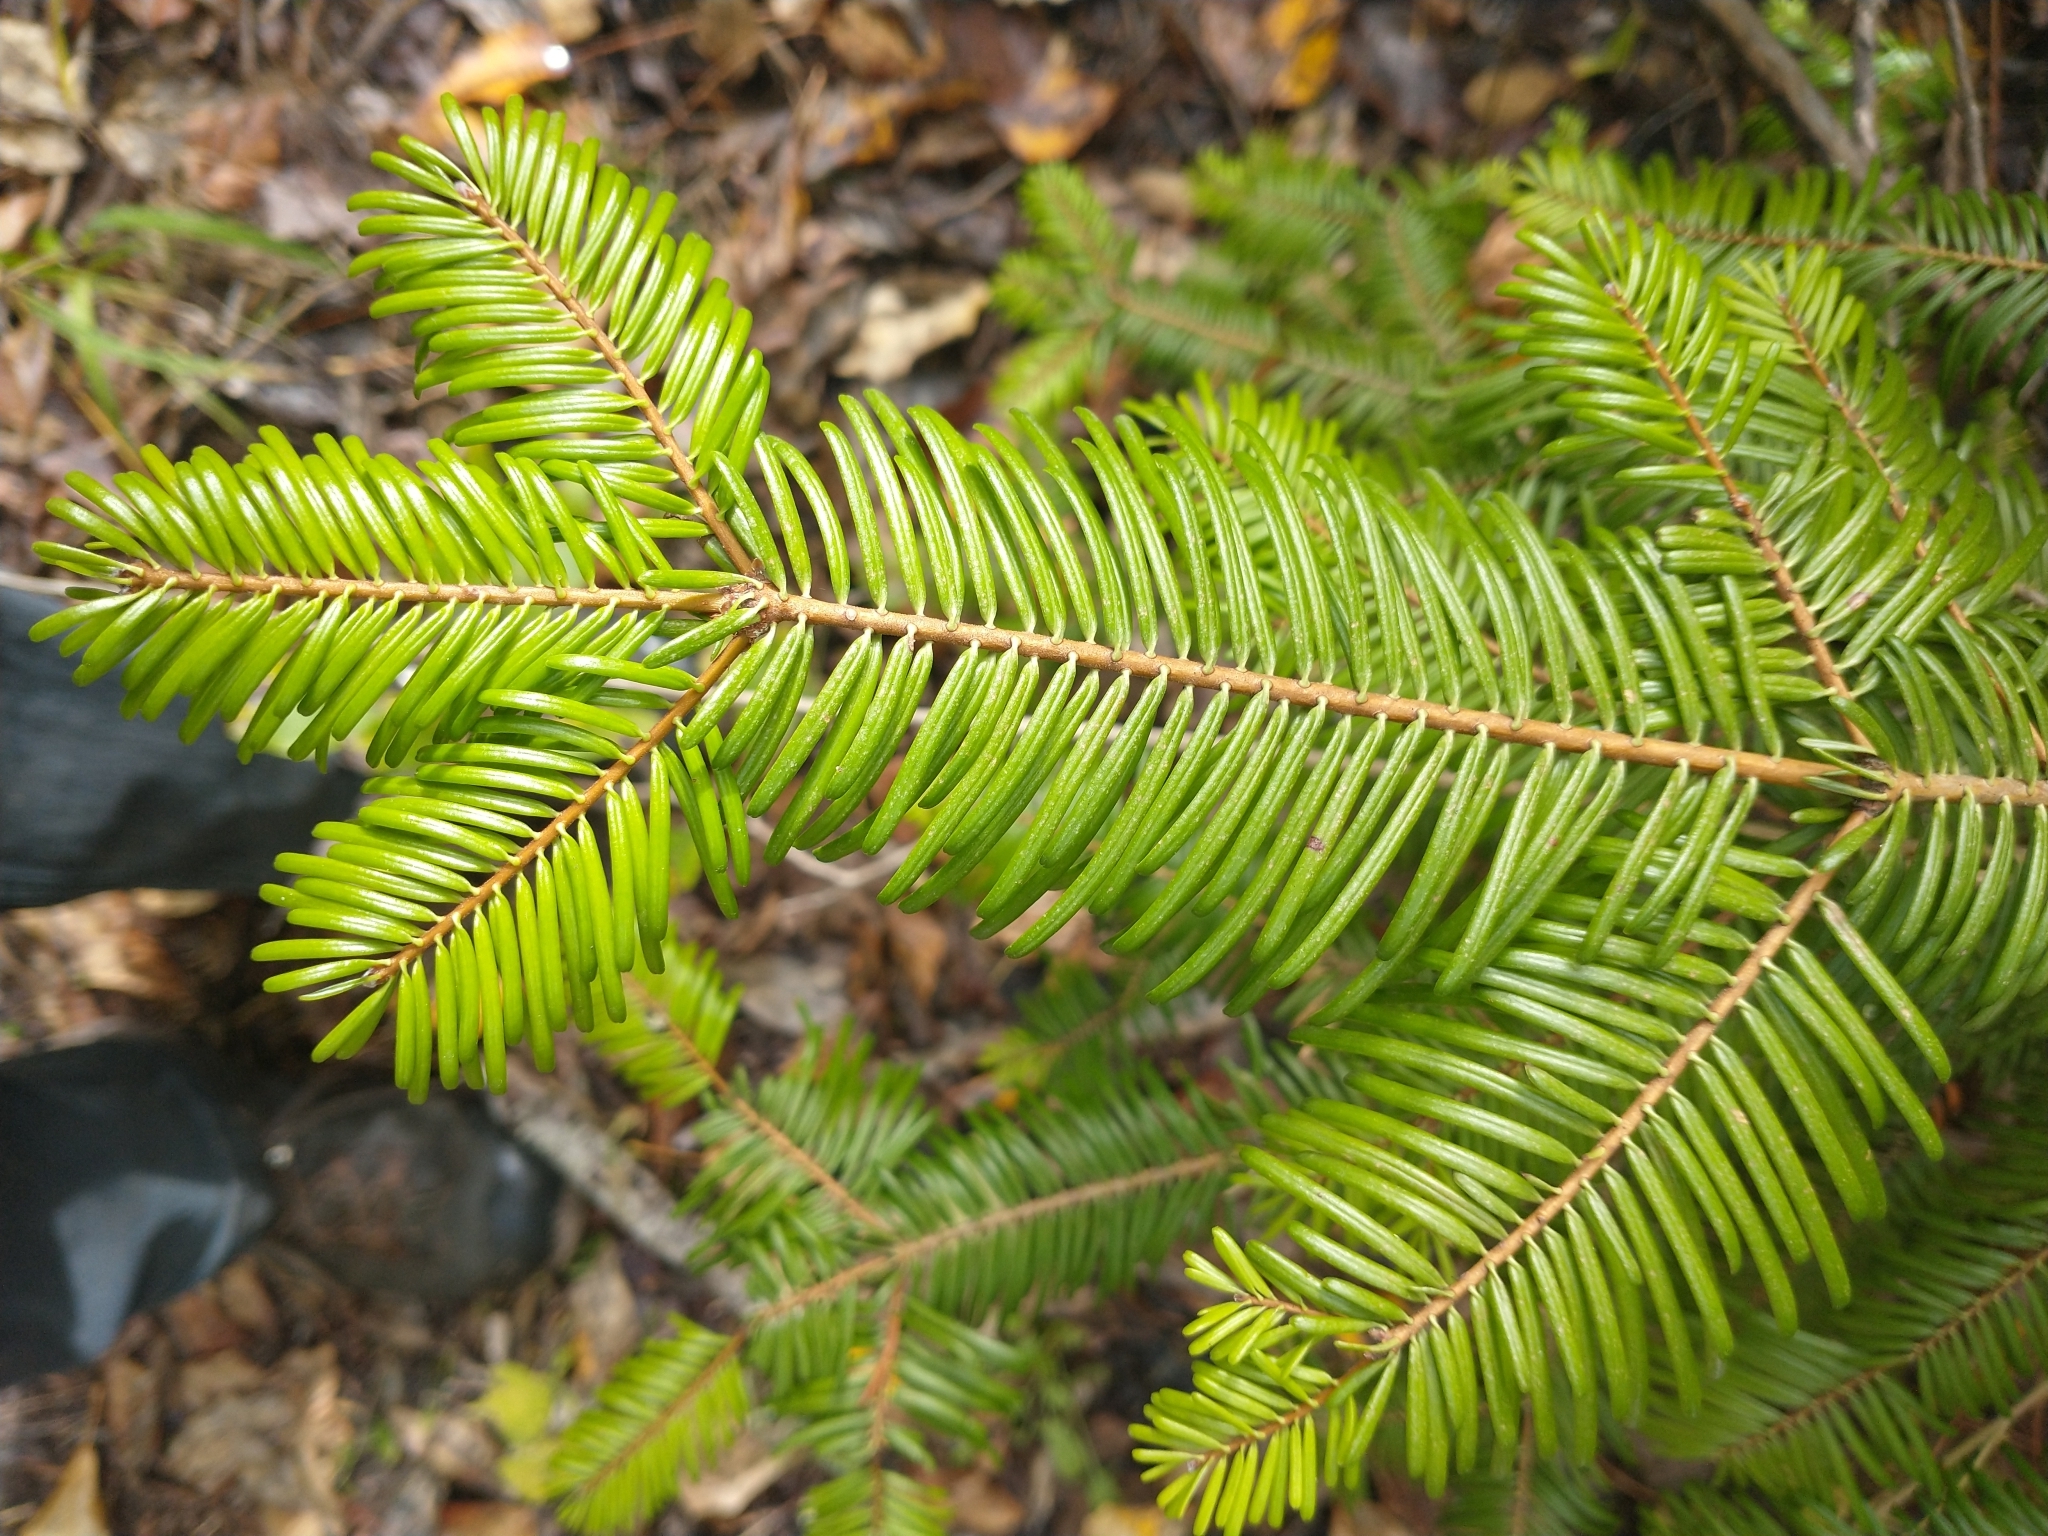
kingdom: Plantae
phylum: Tracheophyta
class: Pinopsida
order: Pinales
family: Pinaceae
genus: Abies
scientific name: Abies grandis
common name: Giant fir
